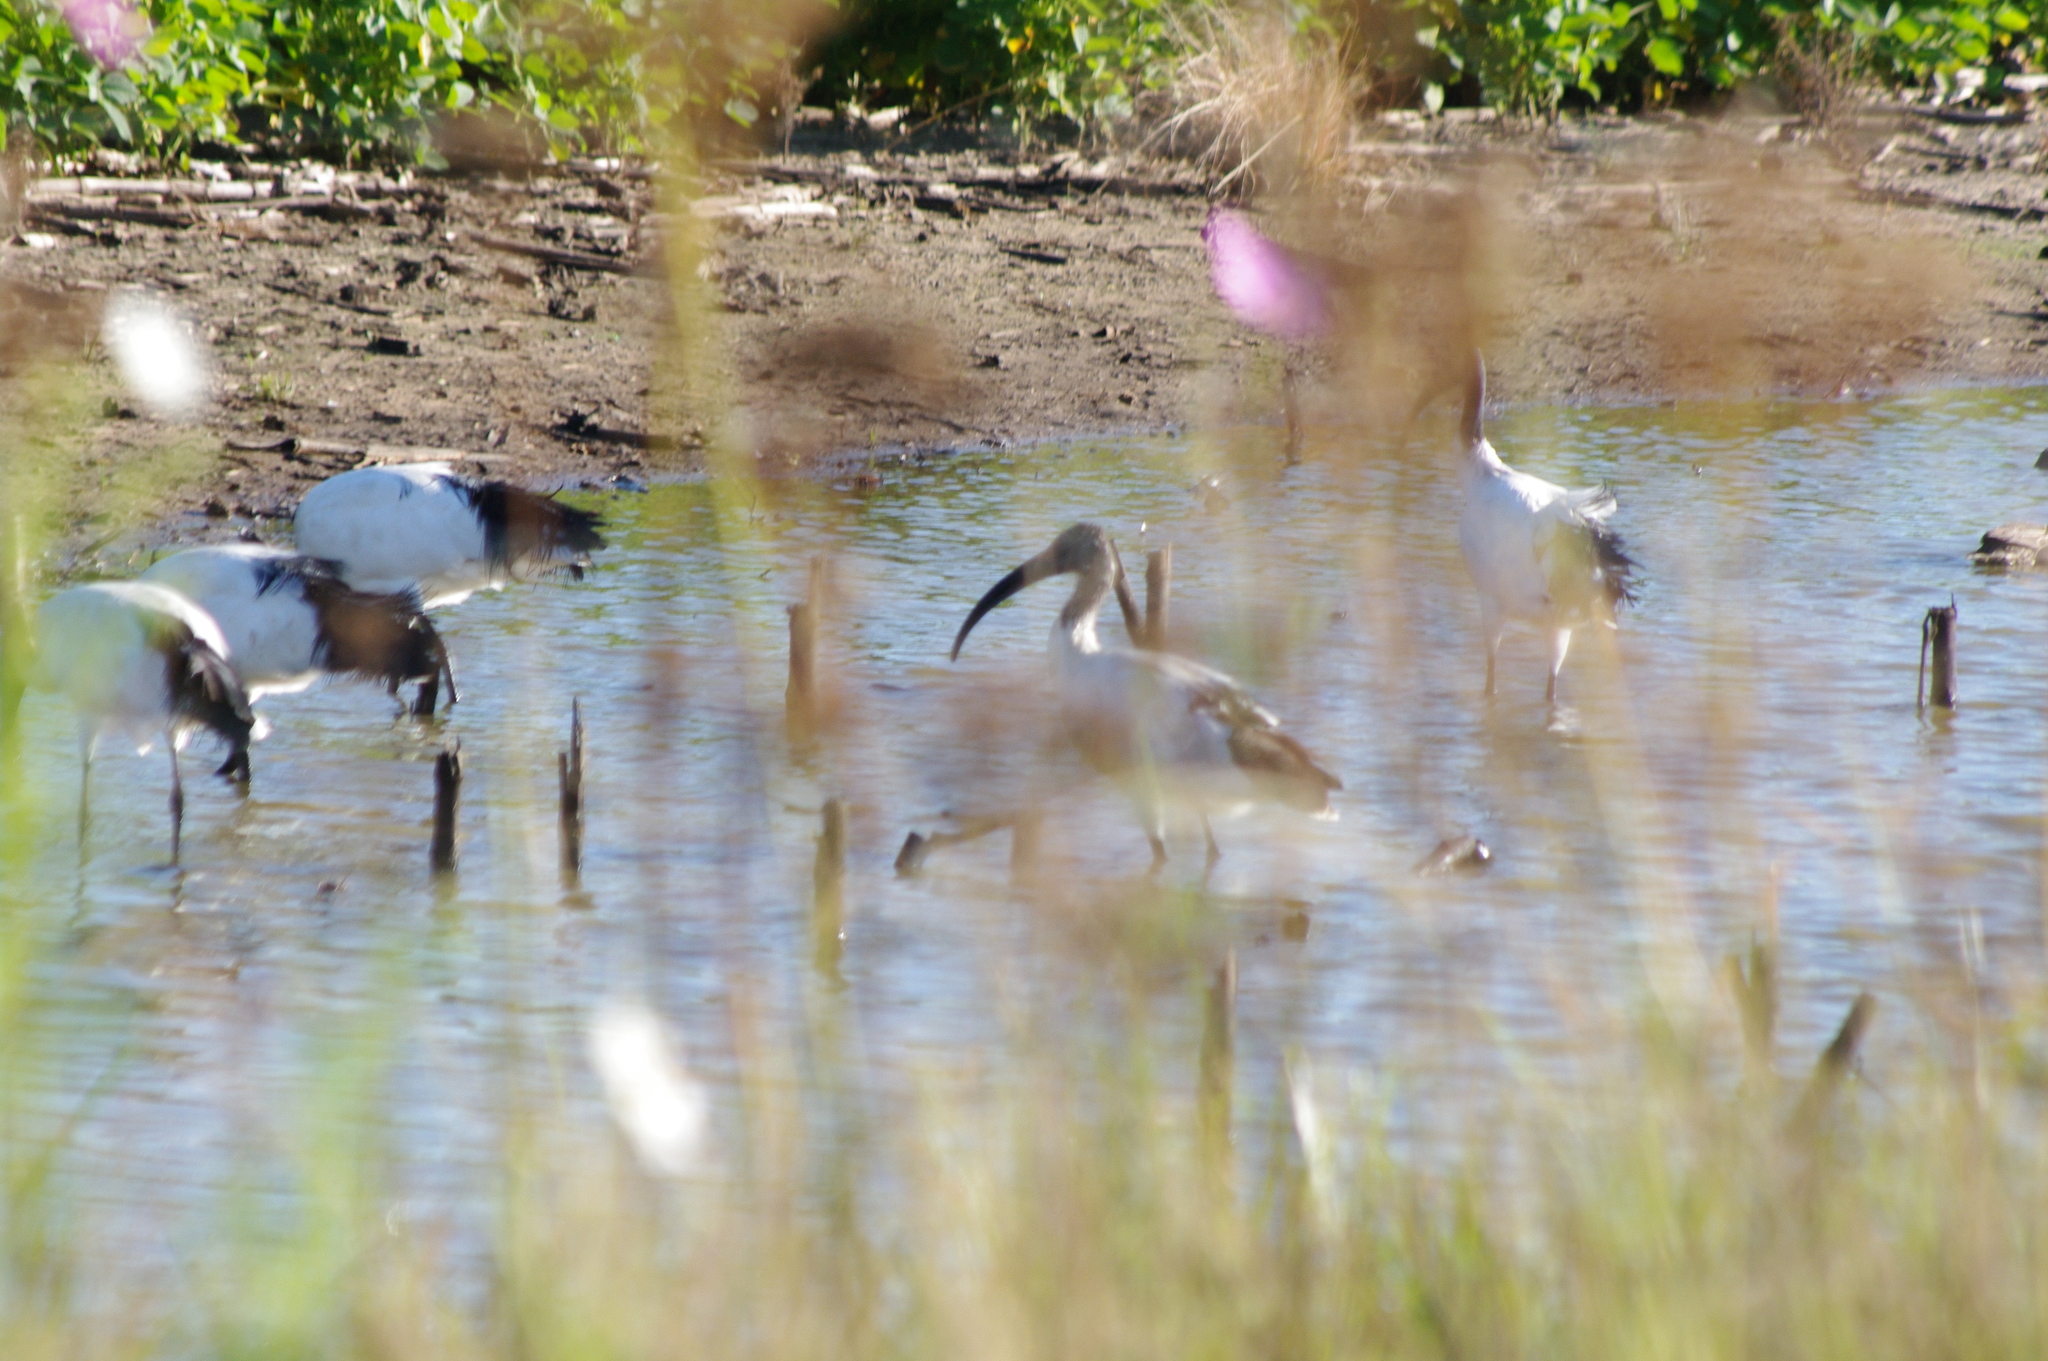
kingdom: Animalia
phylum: Chordata
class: Aves
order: Pelecaniformes
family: Threskiornithidae
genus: Threskiornis
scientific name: Threskiornis aethiopicus
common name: Sacred ibis
